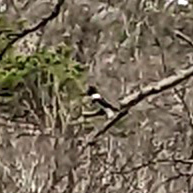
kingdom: Animalia
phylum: Chordata
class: Aves
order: Coraciiformes
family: Alcedinidae
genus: Megaceryle
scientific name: Megaceryle alcyon
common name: Belted kingfisher
